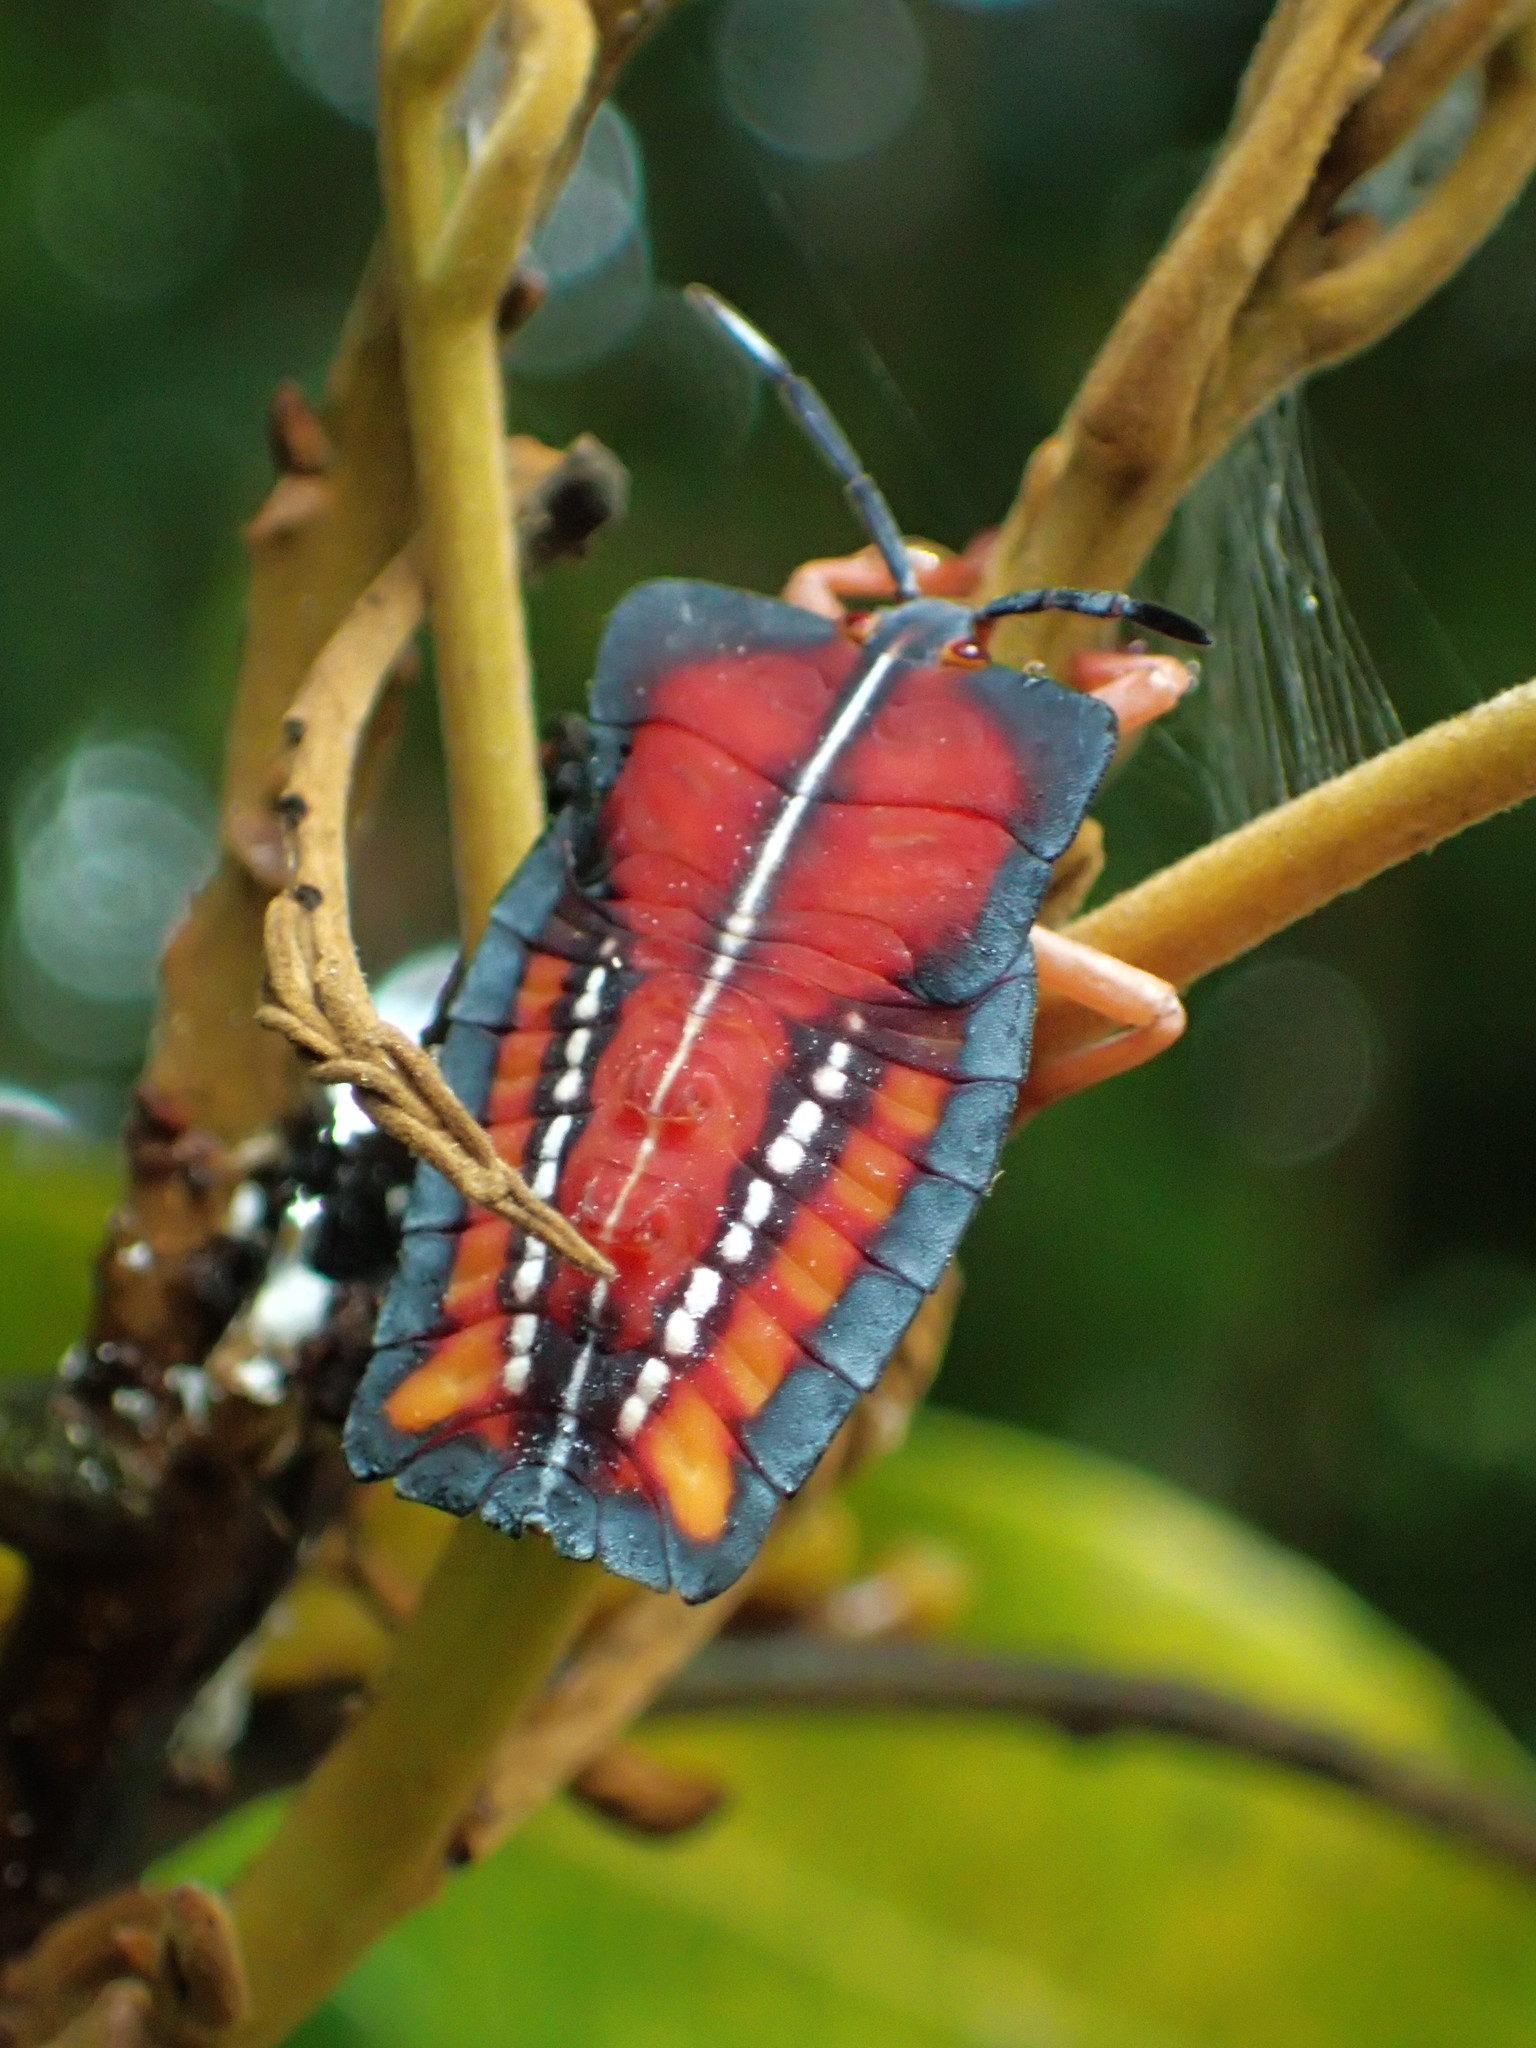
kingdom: Animalia
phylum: Arthropoda
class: Insecta
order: Hemiptera
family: Tessaratomidae
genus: Tessaratoma
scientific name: Tessaratoma papillosa
